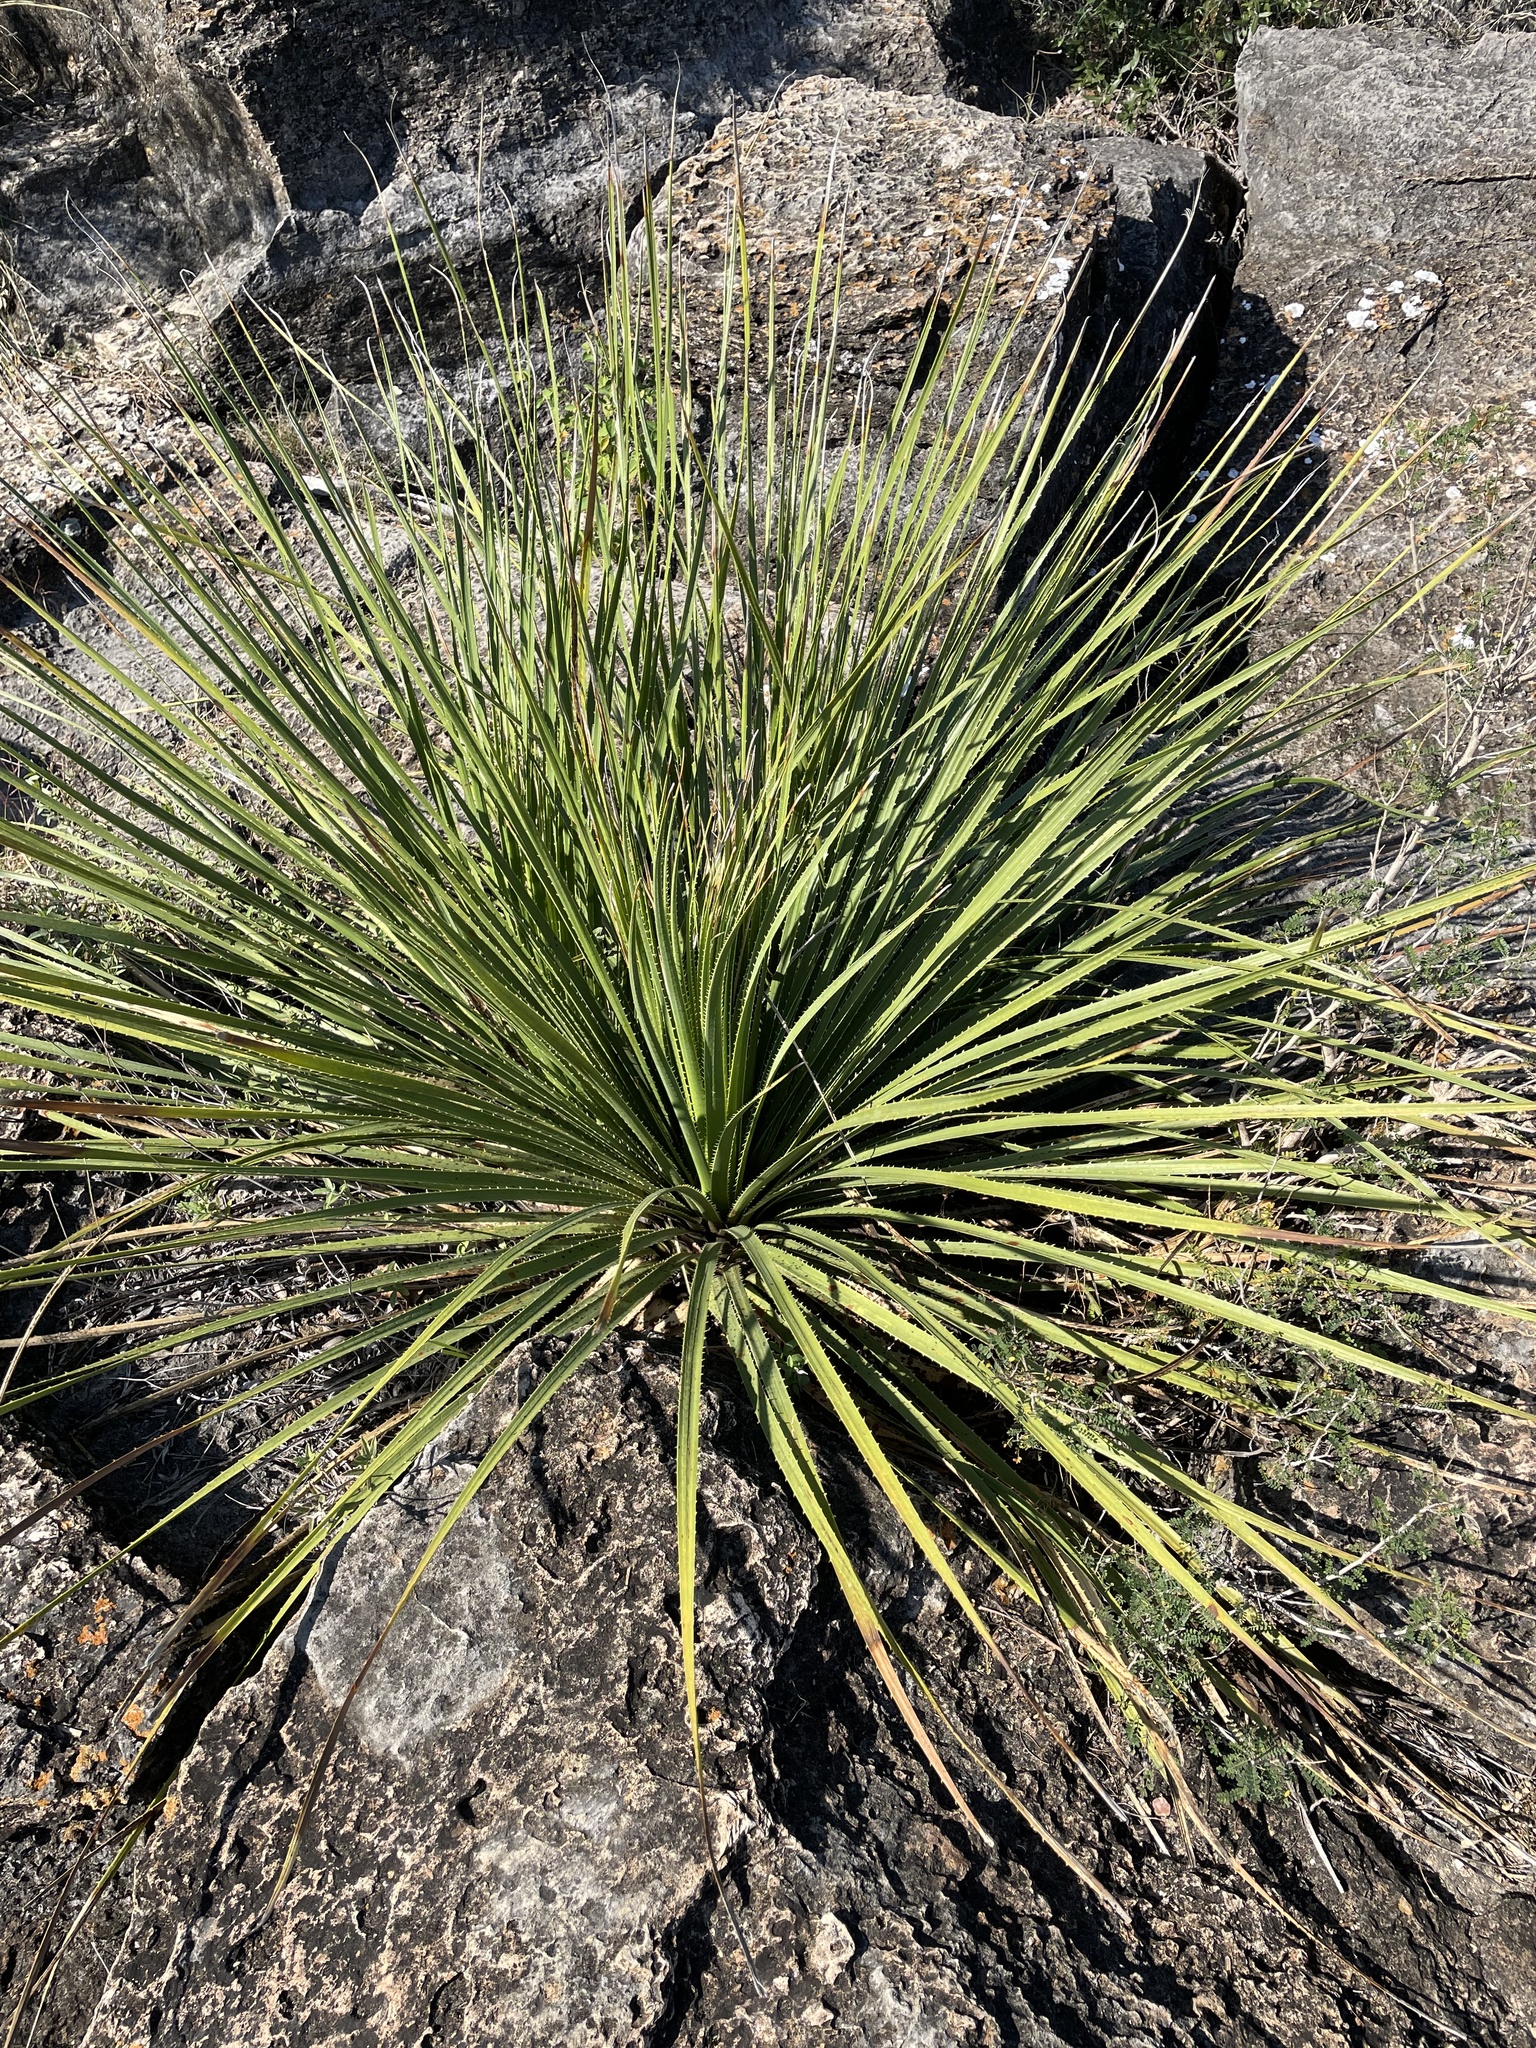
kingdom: Plantae
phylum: Tracheophyta
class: Liliopsida
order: Asparagales
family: Asparagaceae
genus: Dasylirion
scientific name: Dasylirion texanum
